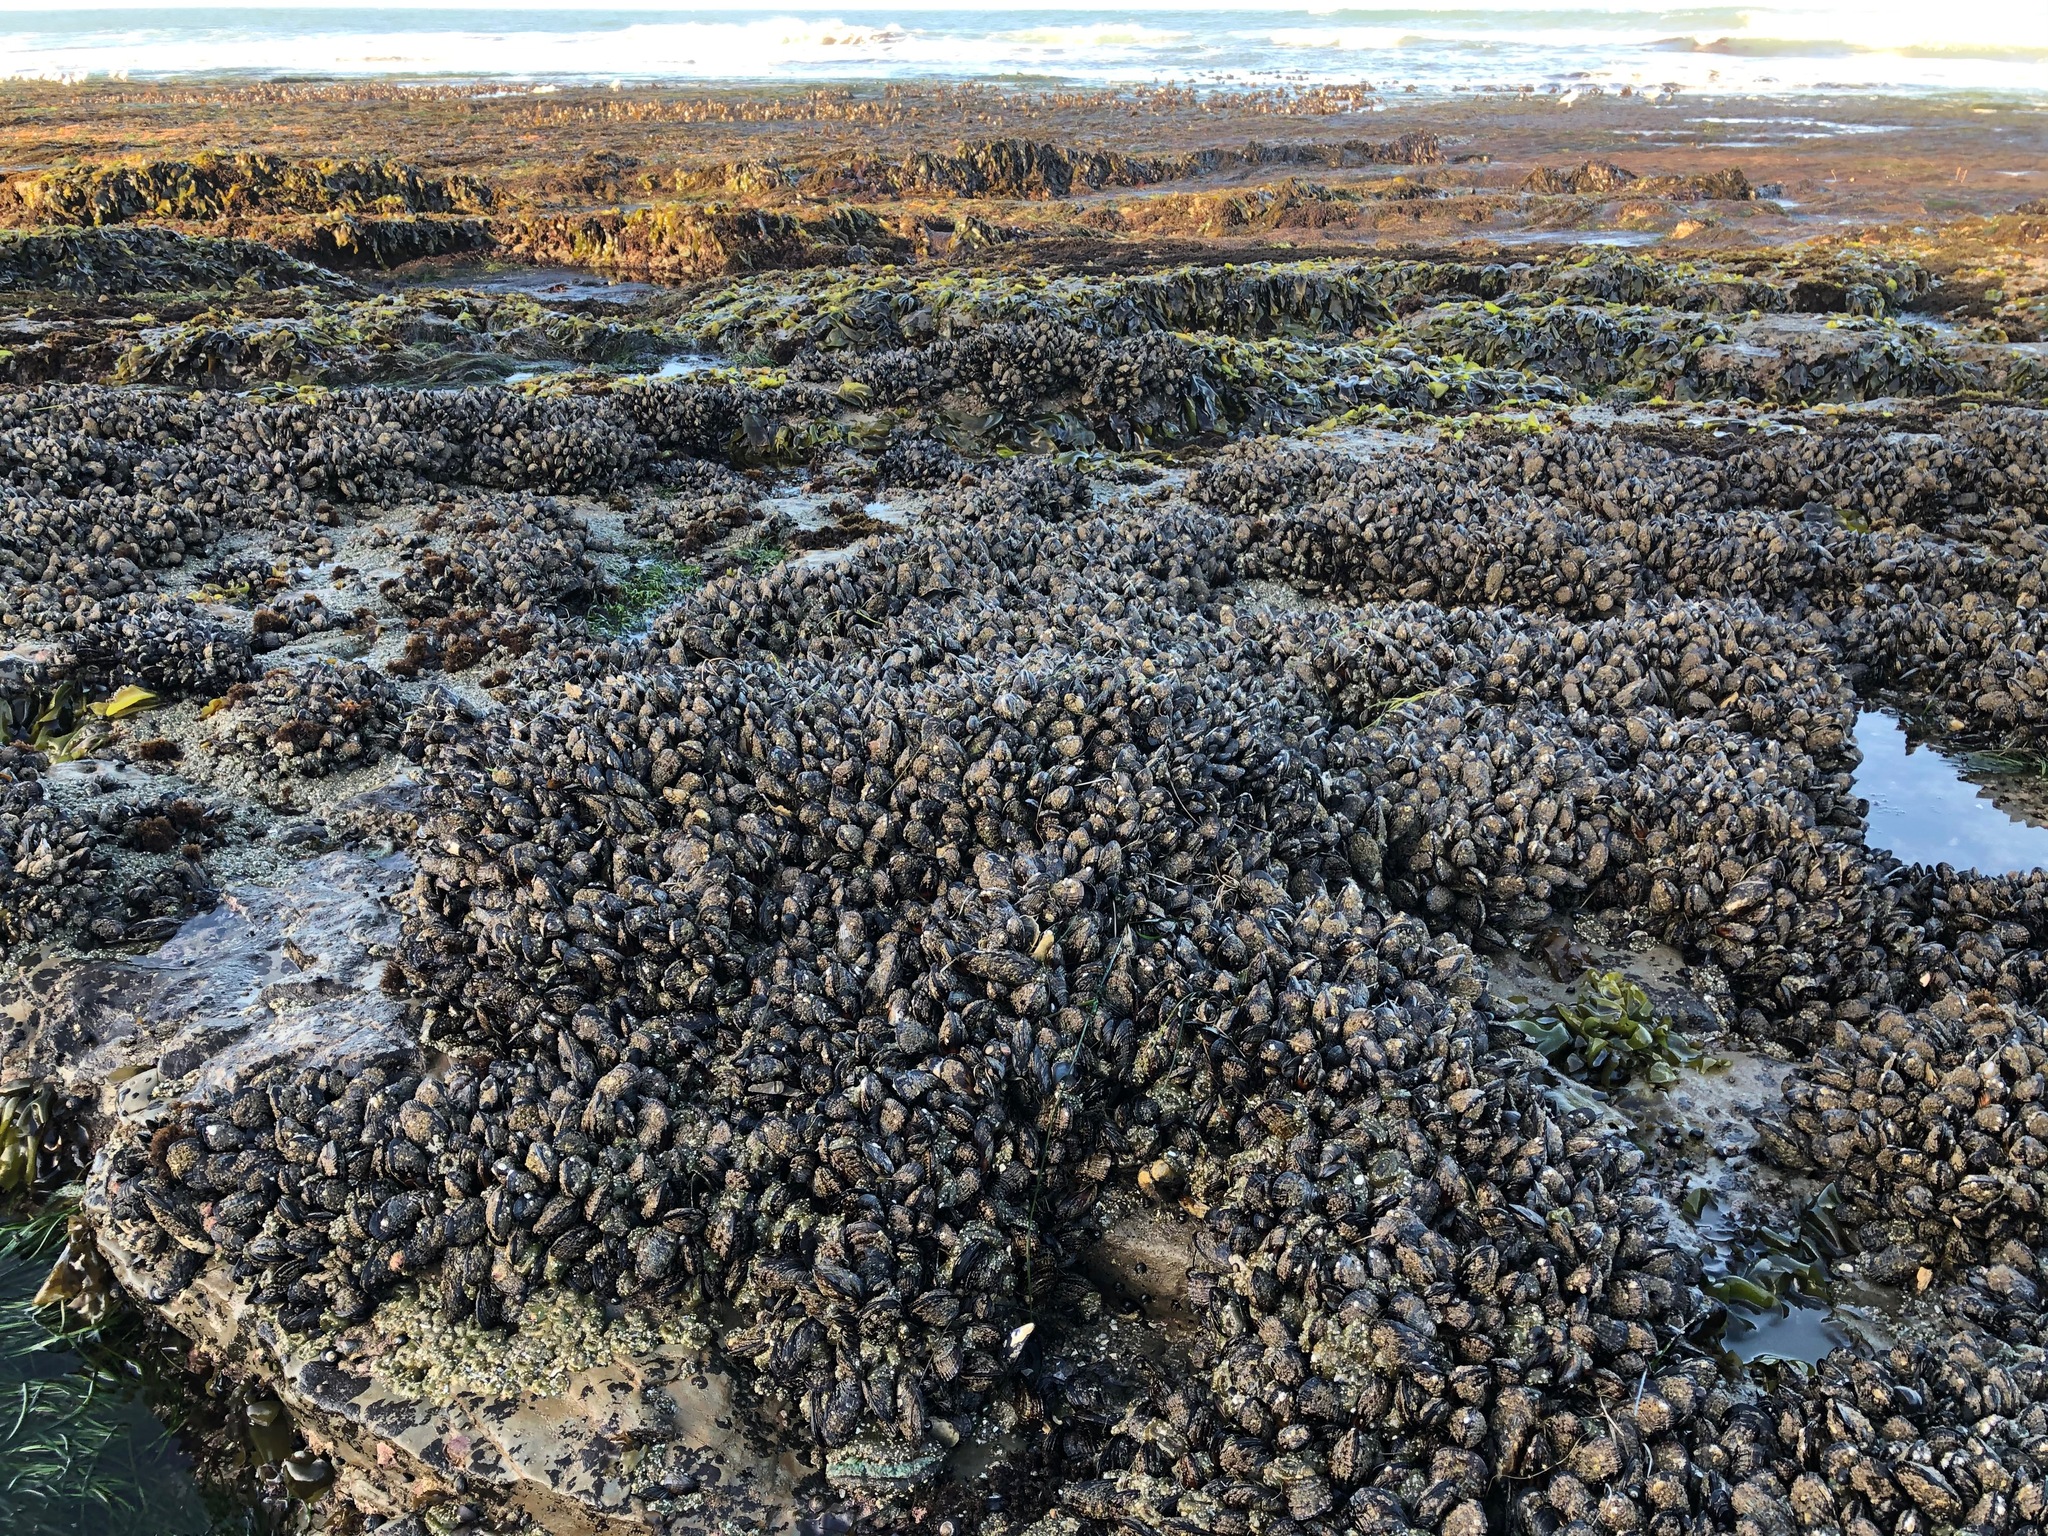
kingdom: Animalia
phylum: Mollusca
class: Bivalvia
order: Mytilida
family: Mytilidae
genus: Mytilus
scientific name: Mytilus californianus
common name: California mussel
